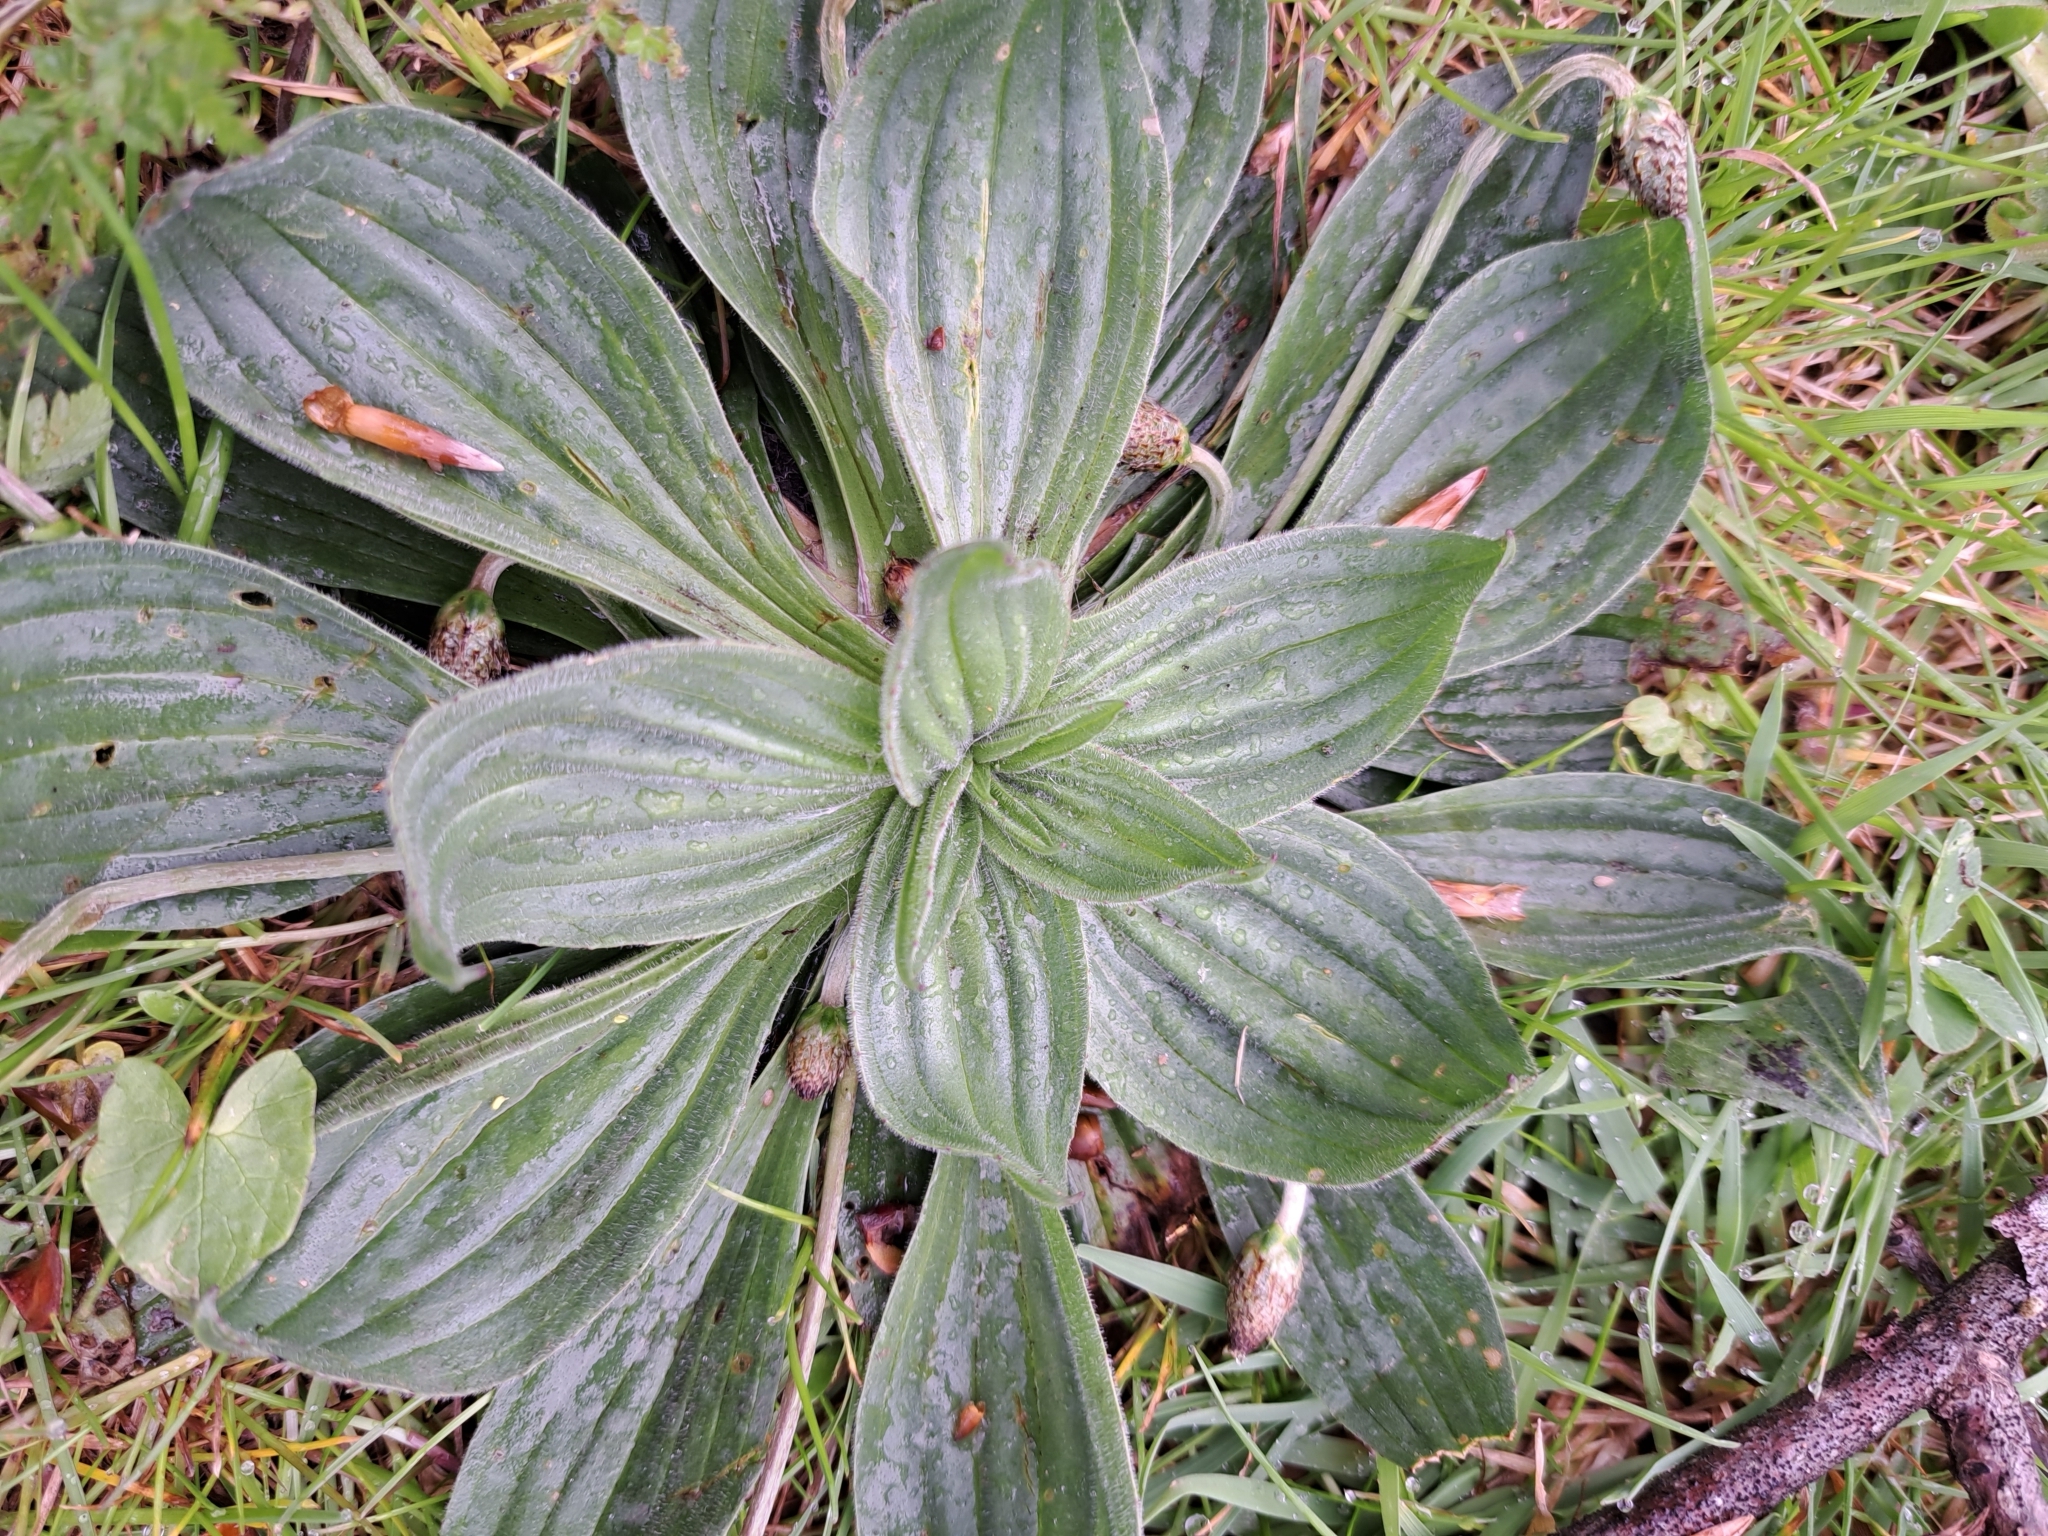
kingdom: Plantae
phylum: Tracheophyta
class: Magnoliopsida
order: Lamiales
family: Plantaginaceae
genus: Plantago
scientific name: Plantago lanceolata
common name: Ribwort plantain
